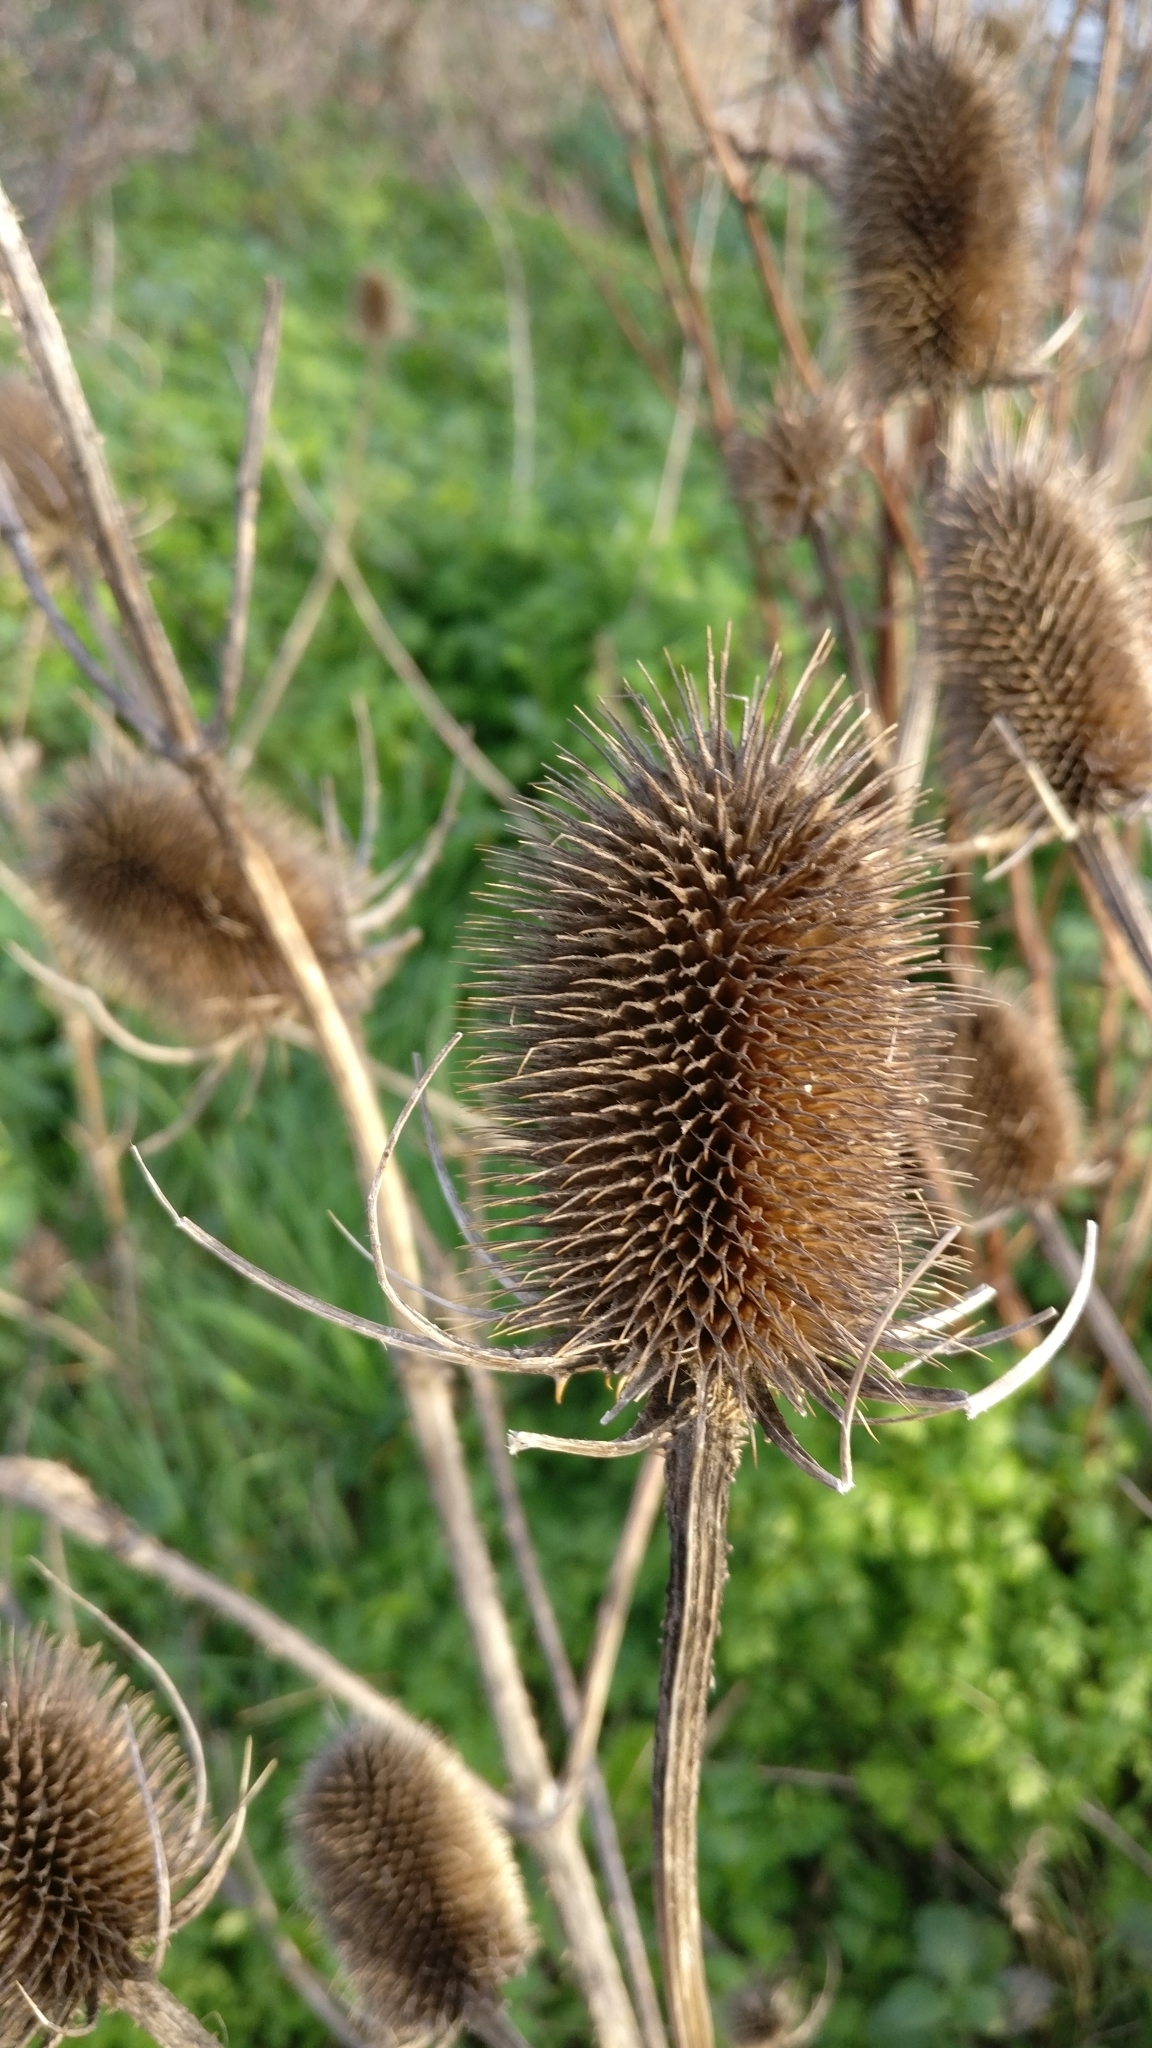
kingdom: Plantae
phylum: Tracheophyta
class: Magnoliopsida
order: Dipsacales
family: Caprifoliaceae
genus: Dipsacus
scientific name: Dipsacus fullonum
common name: Teasel
